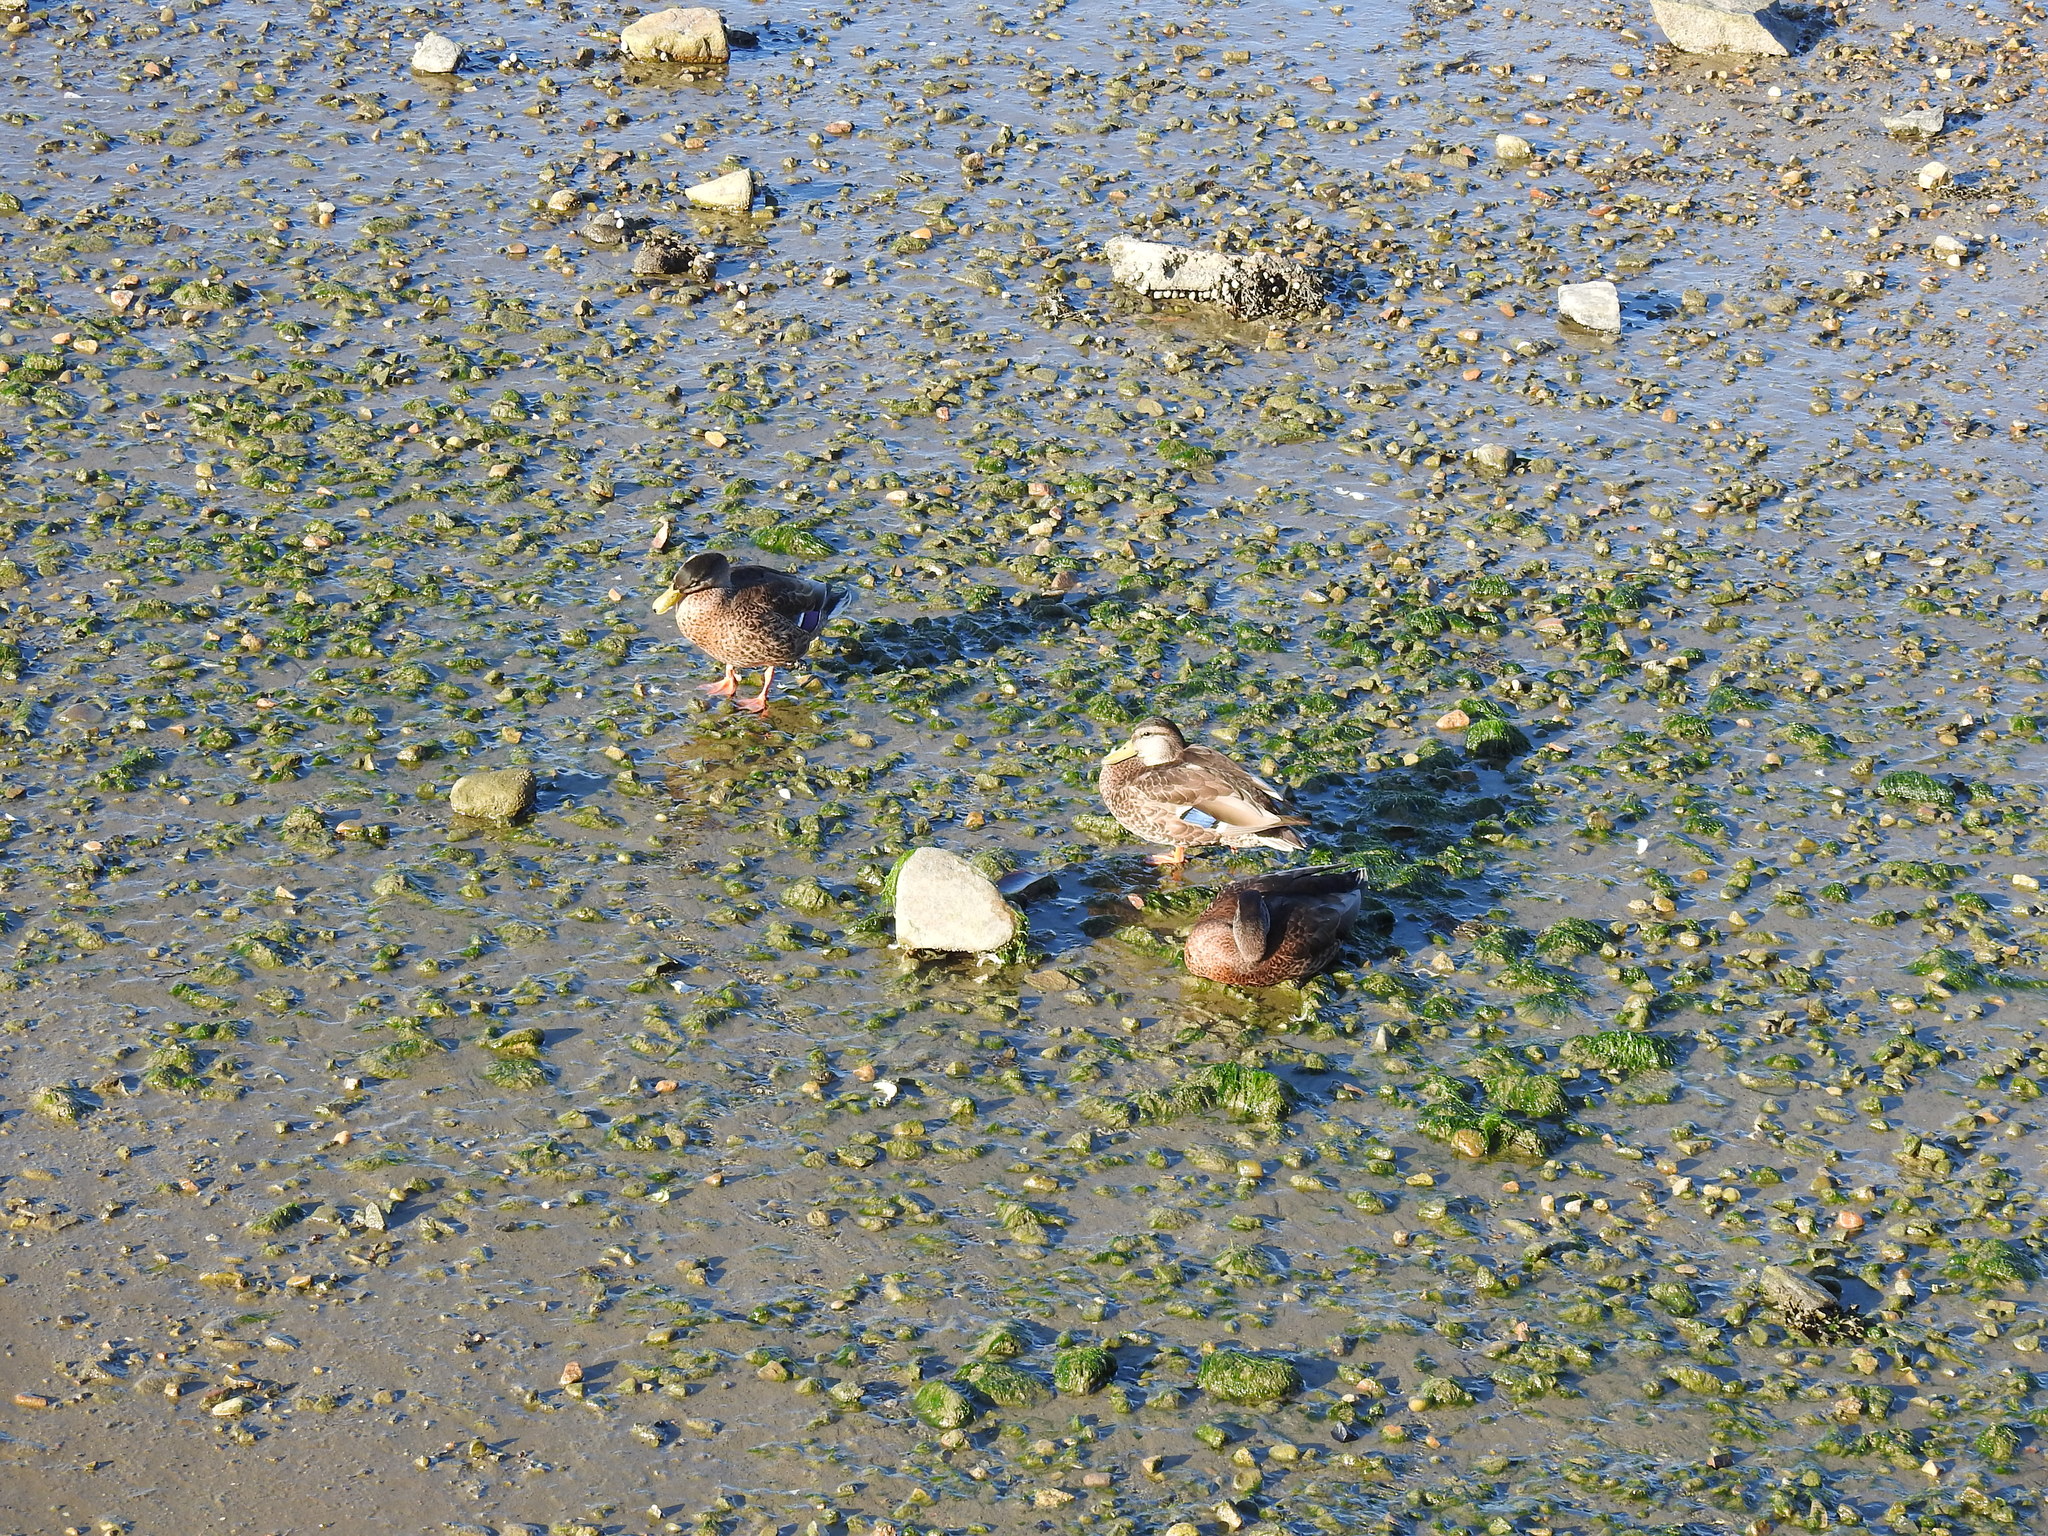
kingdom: Animalia
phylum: Chordata
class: Aves
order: Anseriformes
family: Anatidae
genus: Anas
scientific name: Anas platyrhynchos
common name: Mallard
